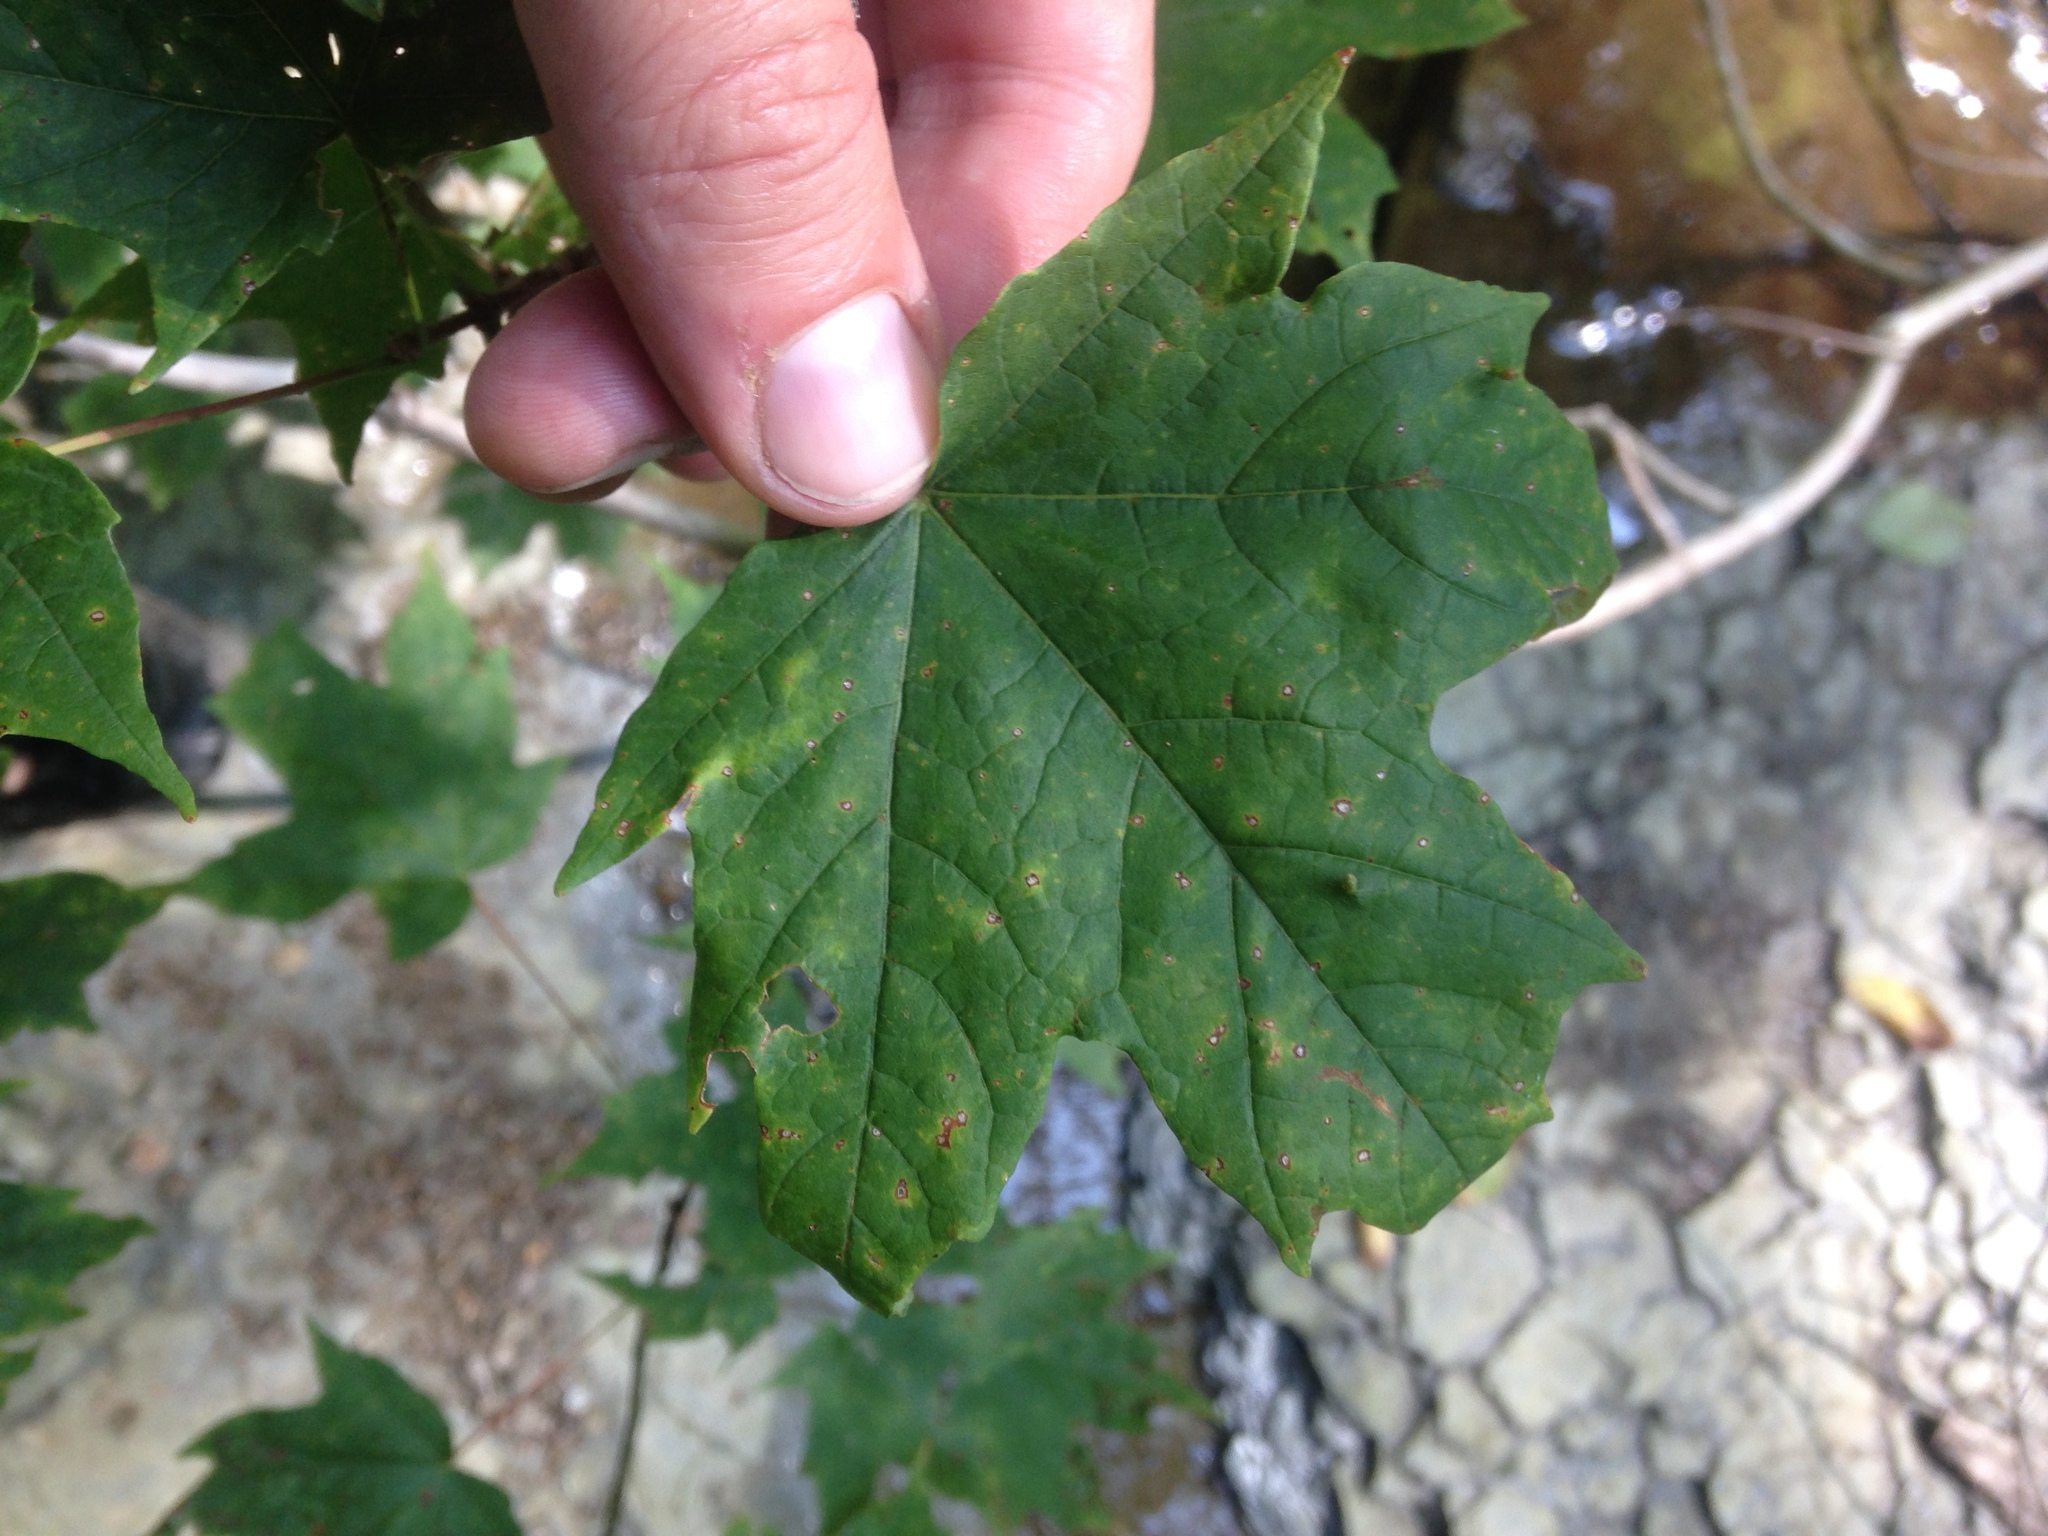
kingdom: Plantae
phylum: Tracheophyta
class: Magnoliopsida
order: Sapindales
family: Sapindaceae
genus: Acer
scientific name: Acer saccharum
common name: Sugar maple
